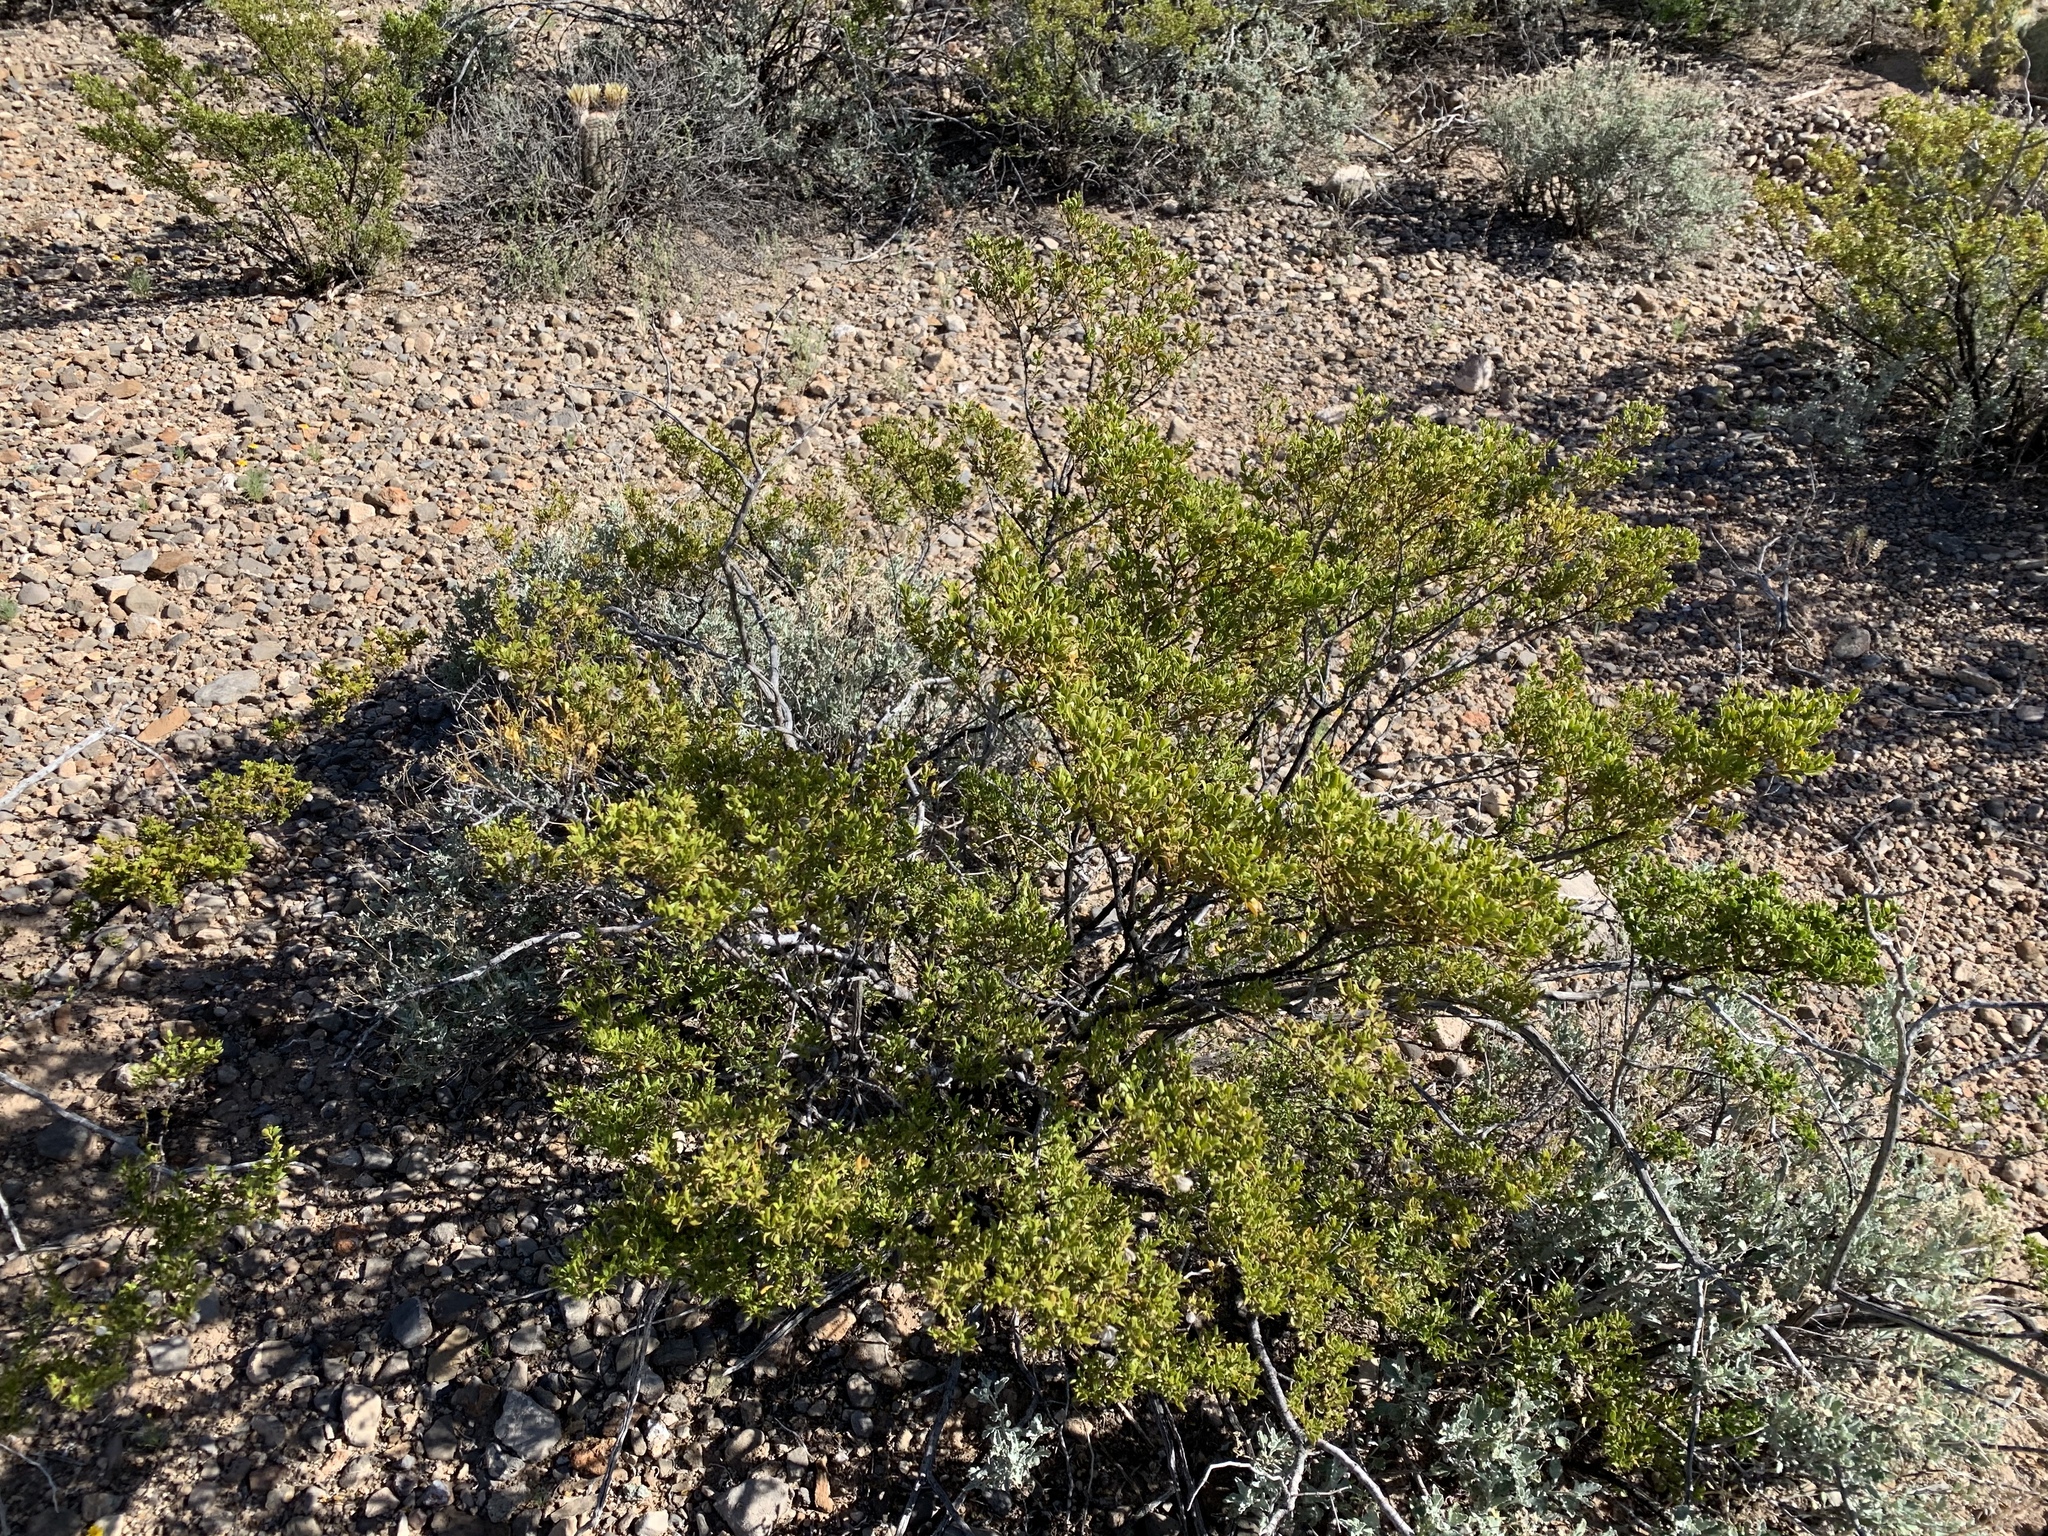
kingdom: Plantae
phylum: Tracheophyta
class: Magnoliopsida
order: Zygophyllales
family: Zygophyllaceae
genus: Larrea
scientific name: Larrea tridentata
